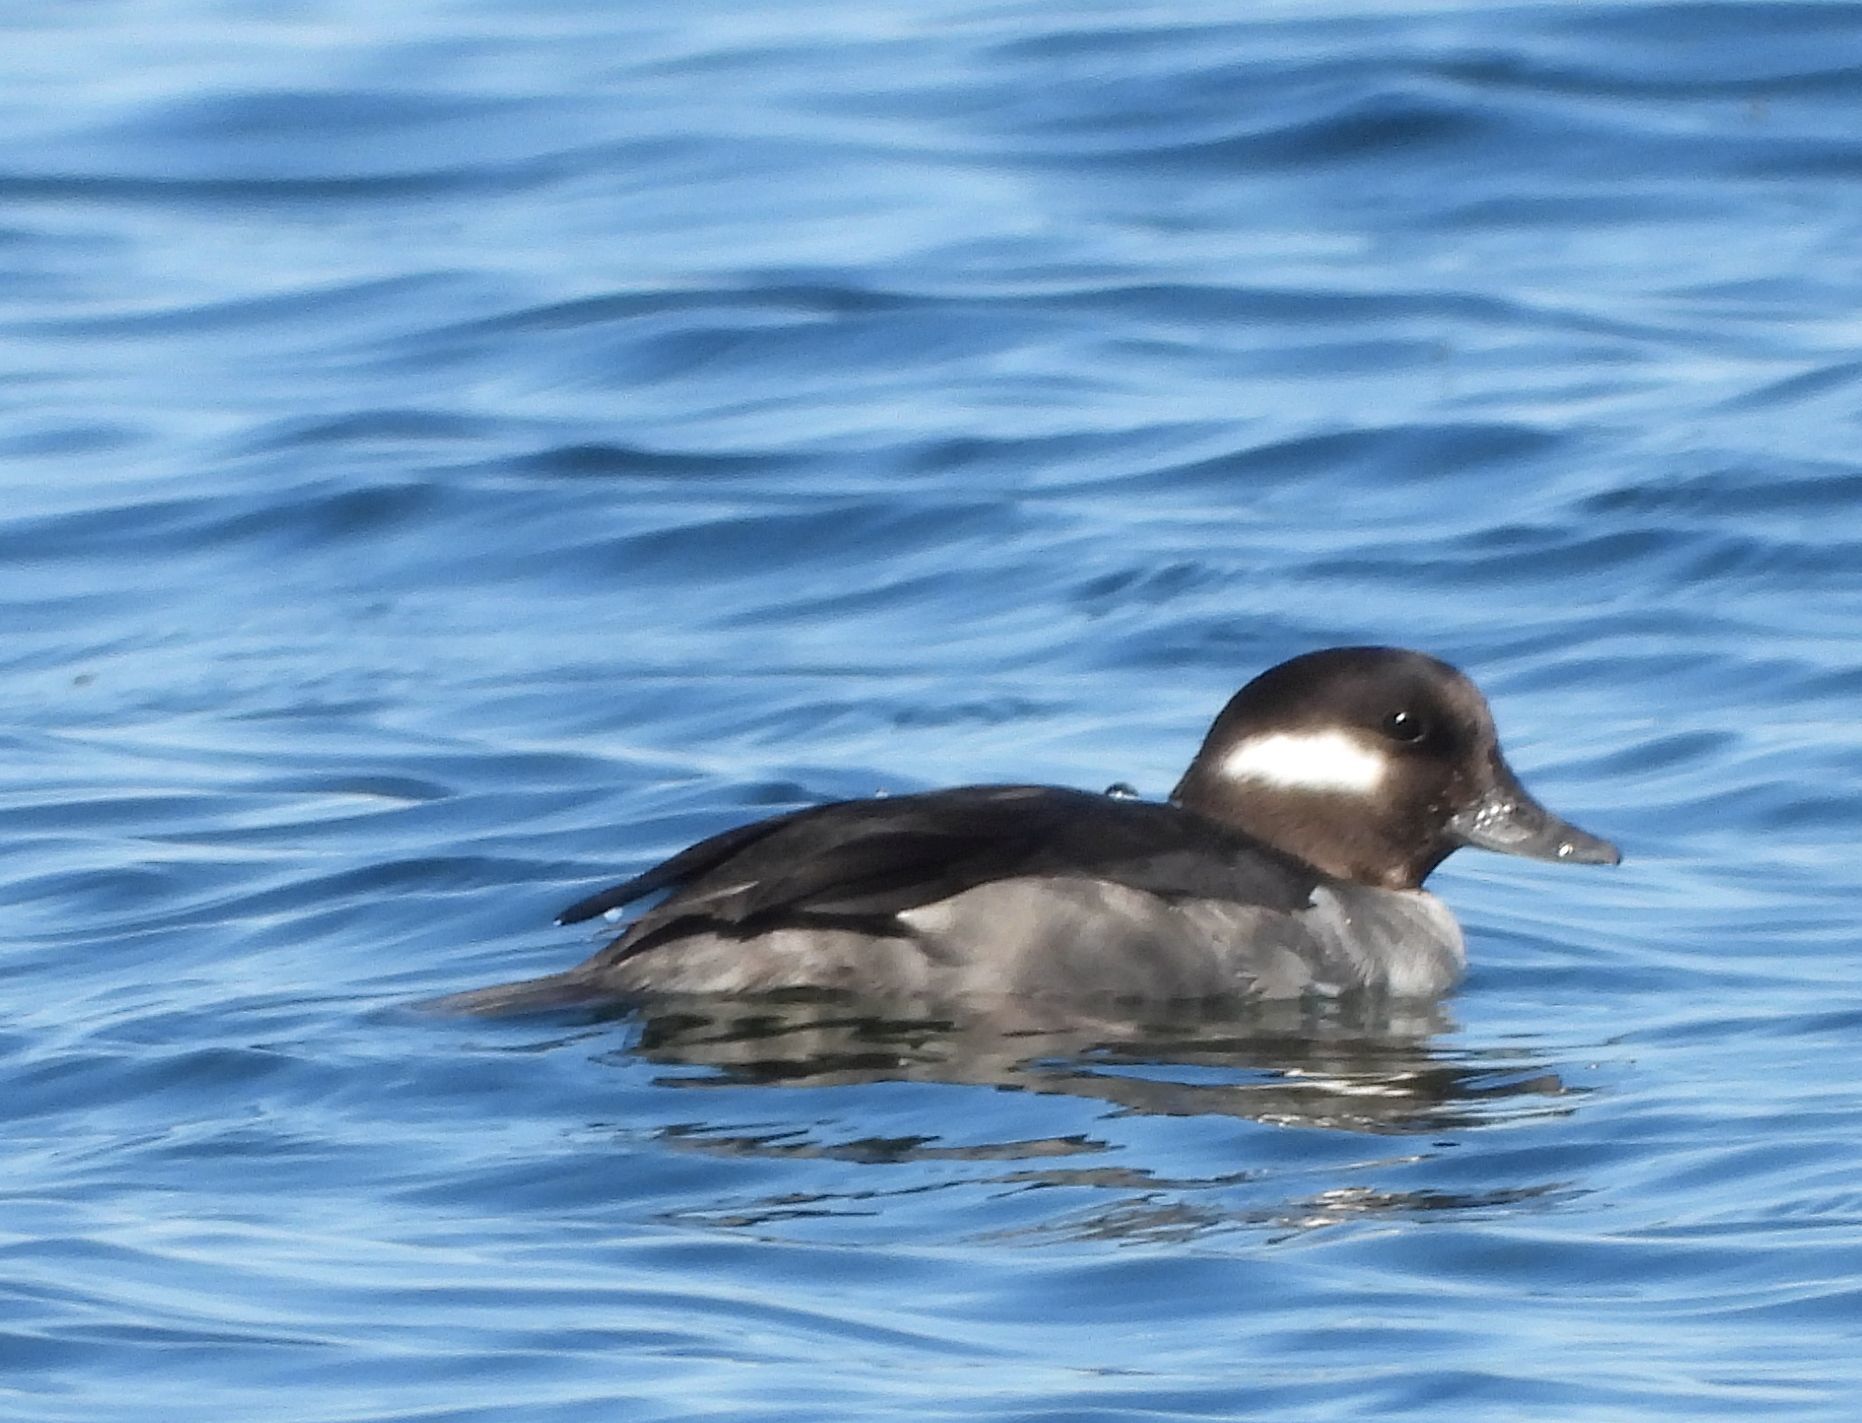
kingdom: Animalia
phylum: Chordata
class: Aves
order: Anseriformes
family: Anatidae
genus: Bucephala
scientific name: Bucephala albeola
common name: Bufflehead
